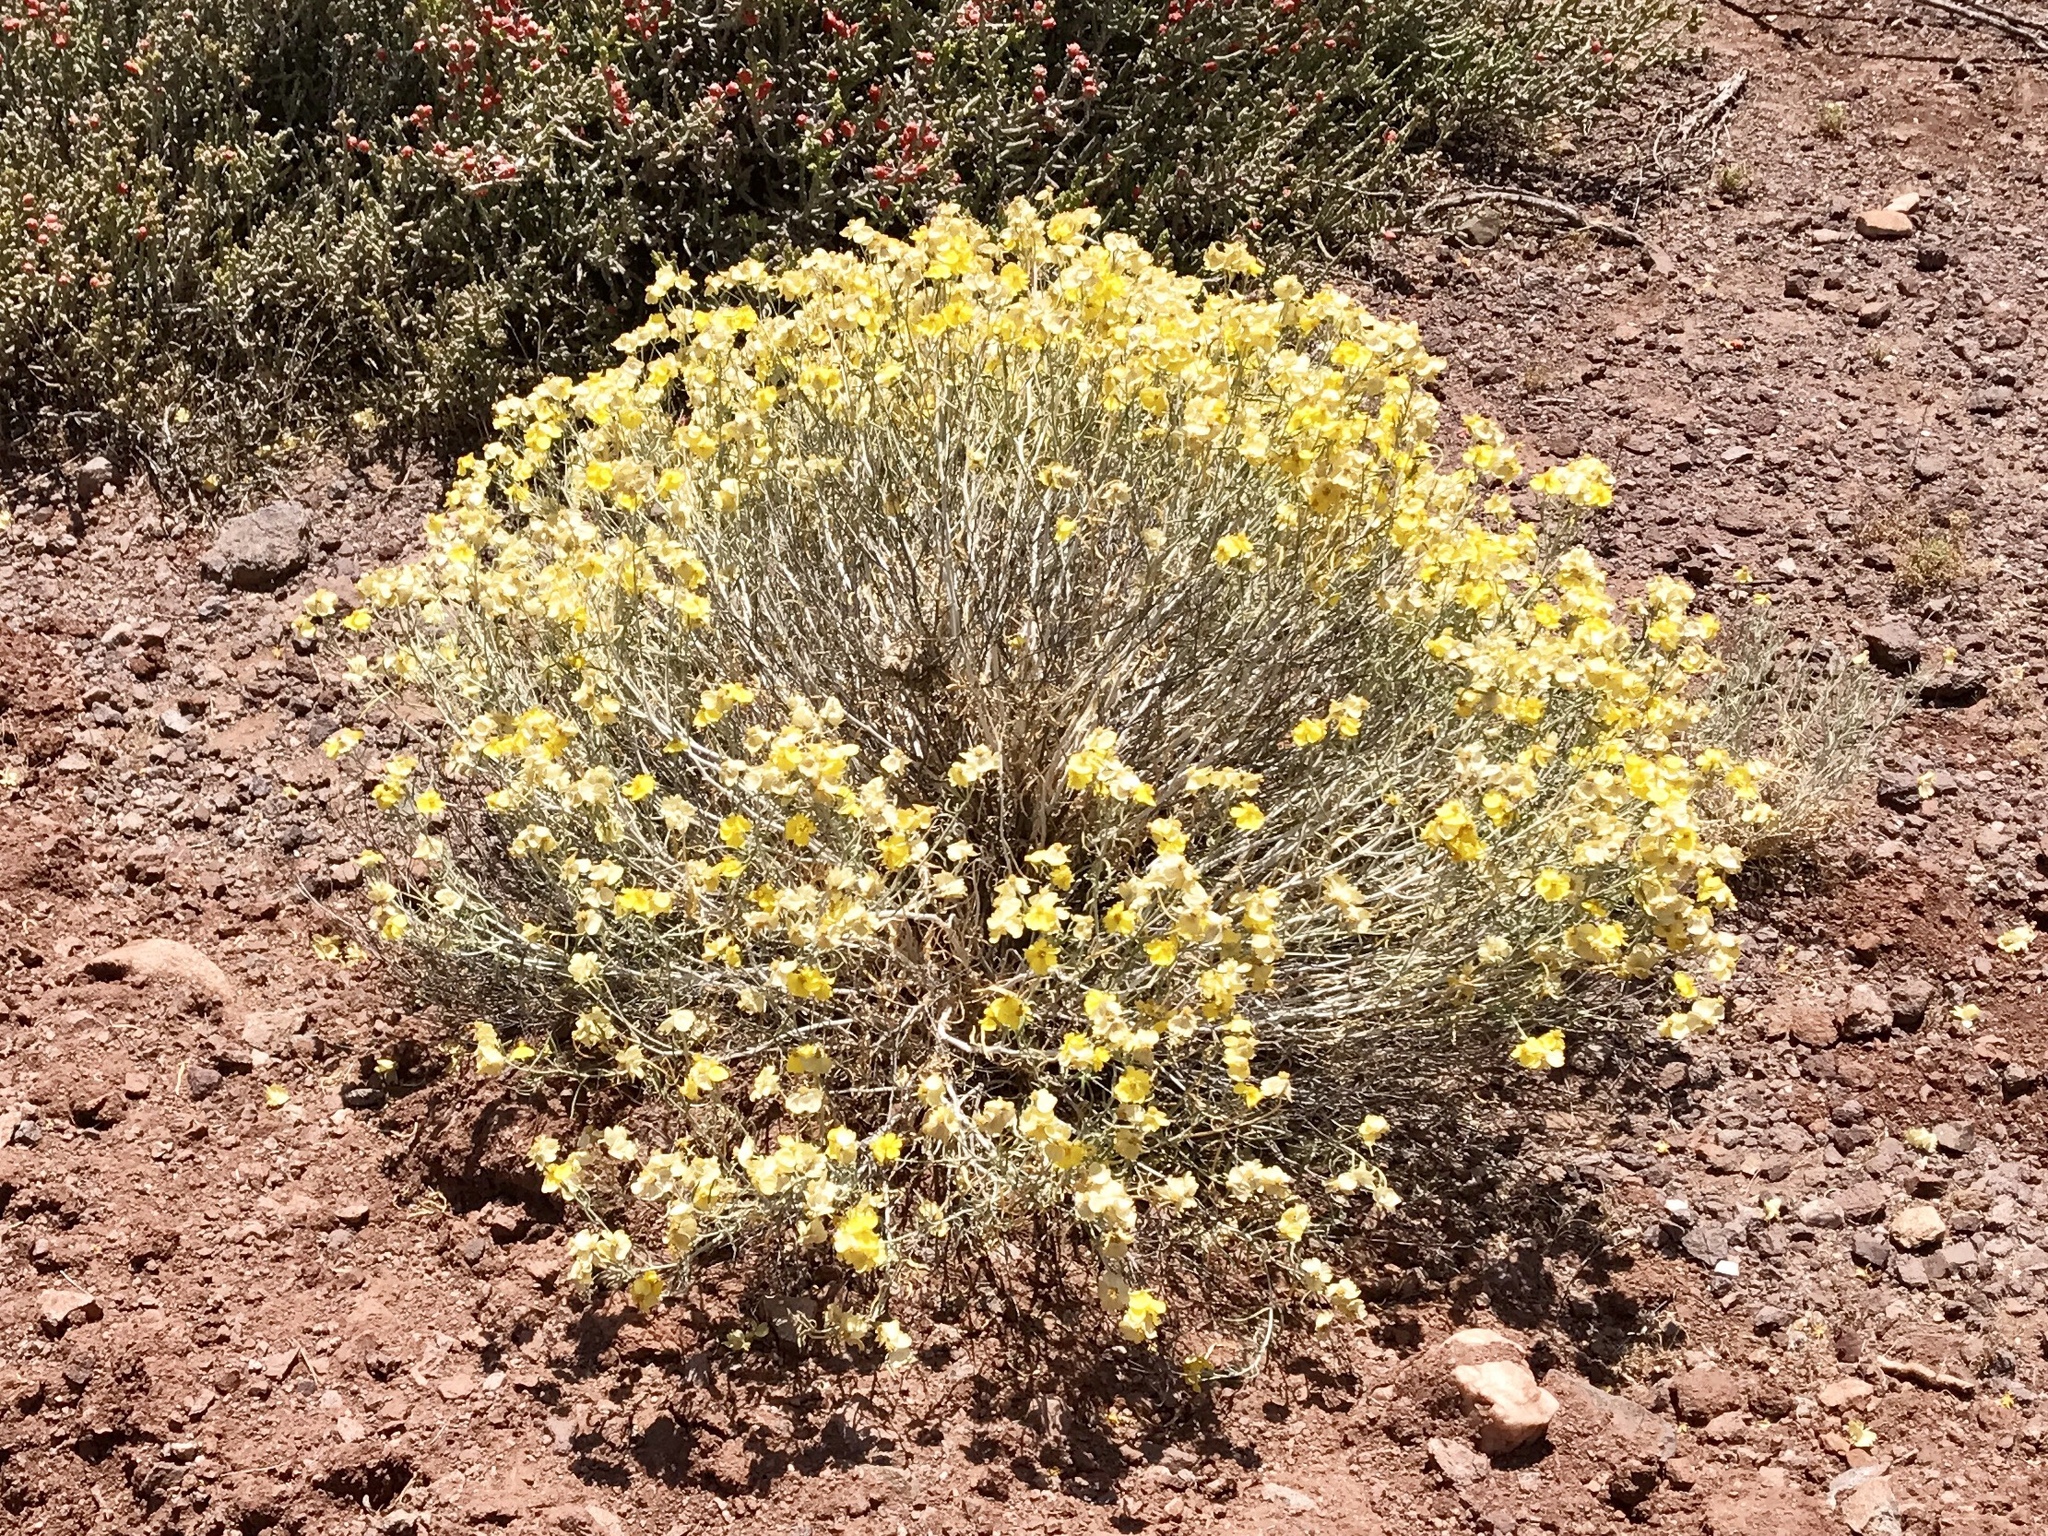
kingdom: Plantae
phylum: Tracheophyta
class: Magnoliopsida
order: Asterales
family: Asteraceae
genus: Psilostrophe
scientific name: Psilostrophe cooperi
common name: White-stem paper-flower
